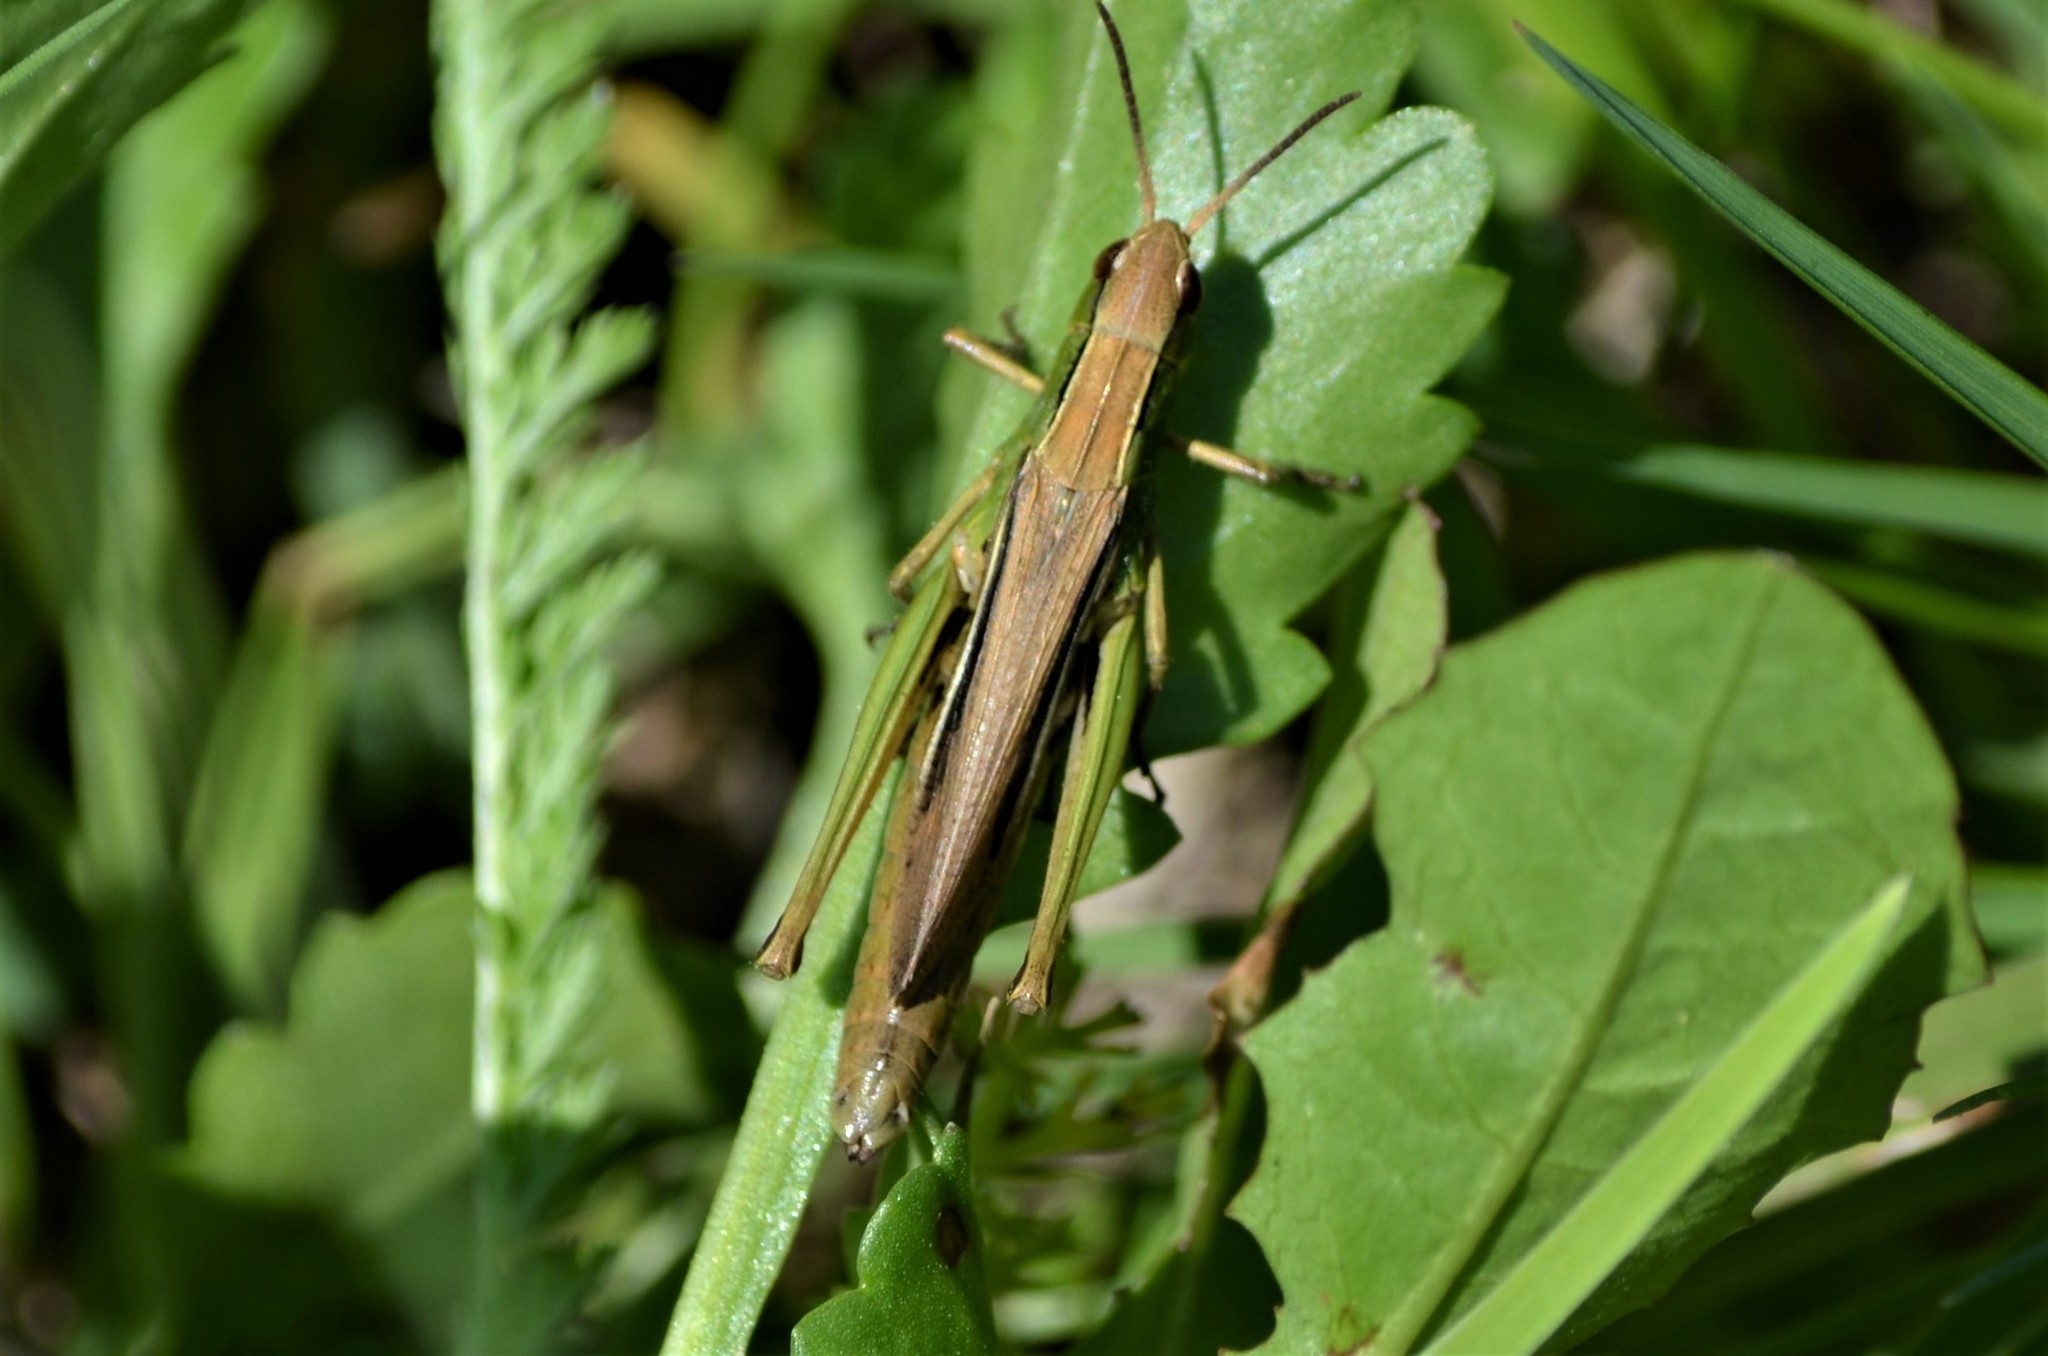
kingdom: Animalia
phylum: Arthropoda
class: Insecta
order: Orthoptera
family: Acrididae
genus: Chorthippus
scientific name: Chorthippus albomarginatus
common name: Lesser marsh grasshopper
